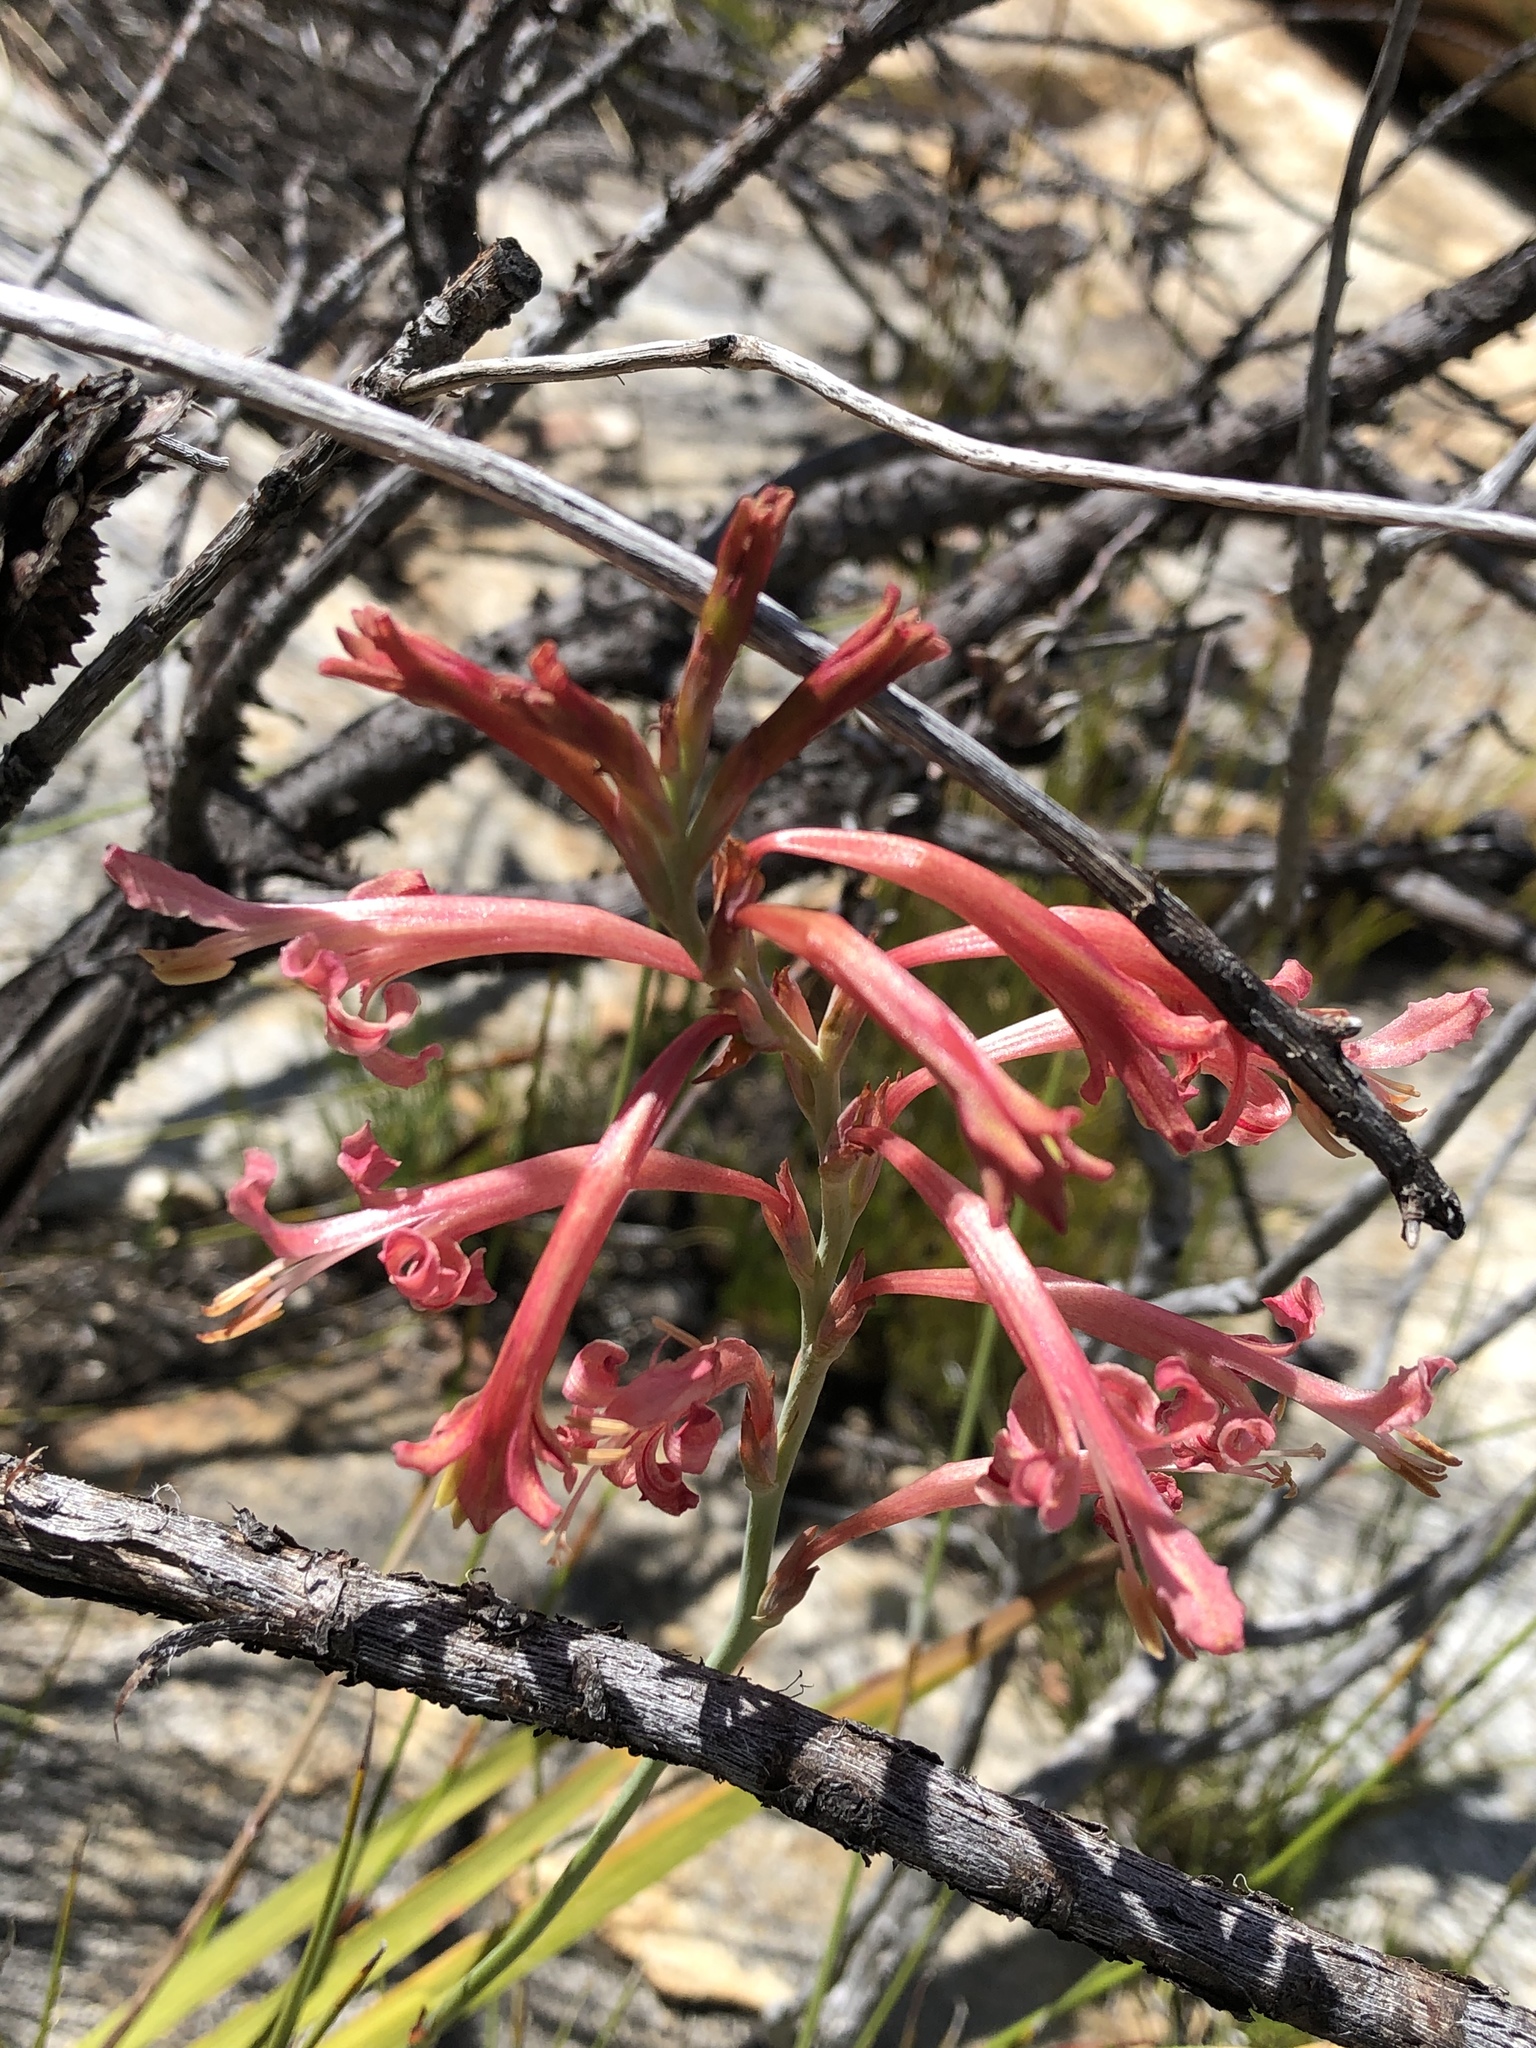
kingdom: Plantae
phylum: Tracheophyta
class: Liliopsida
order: Asparagales
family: Iridaceae
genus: Tritoniopsis
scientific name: Tritoniopsis antholyza
